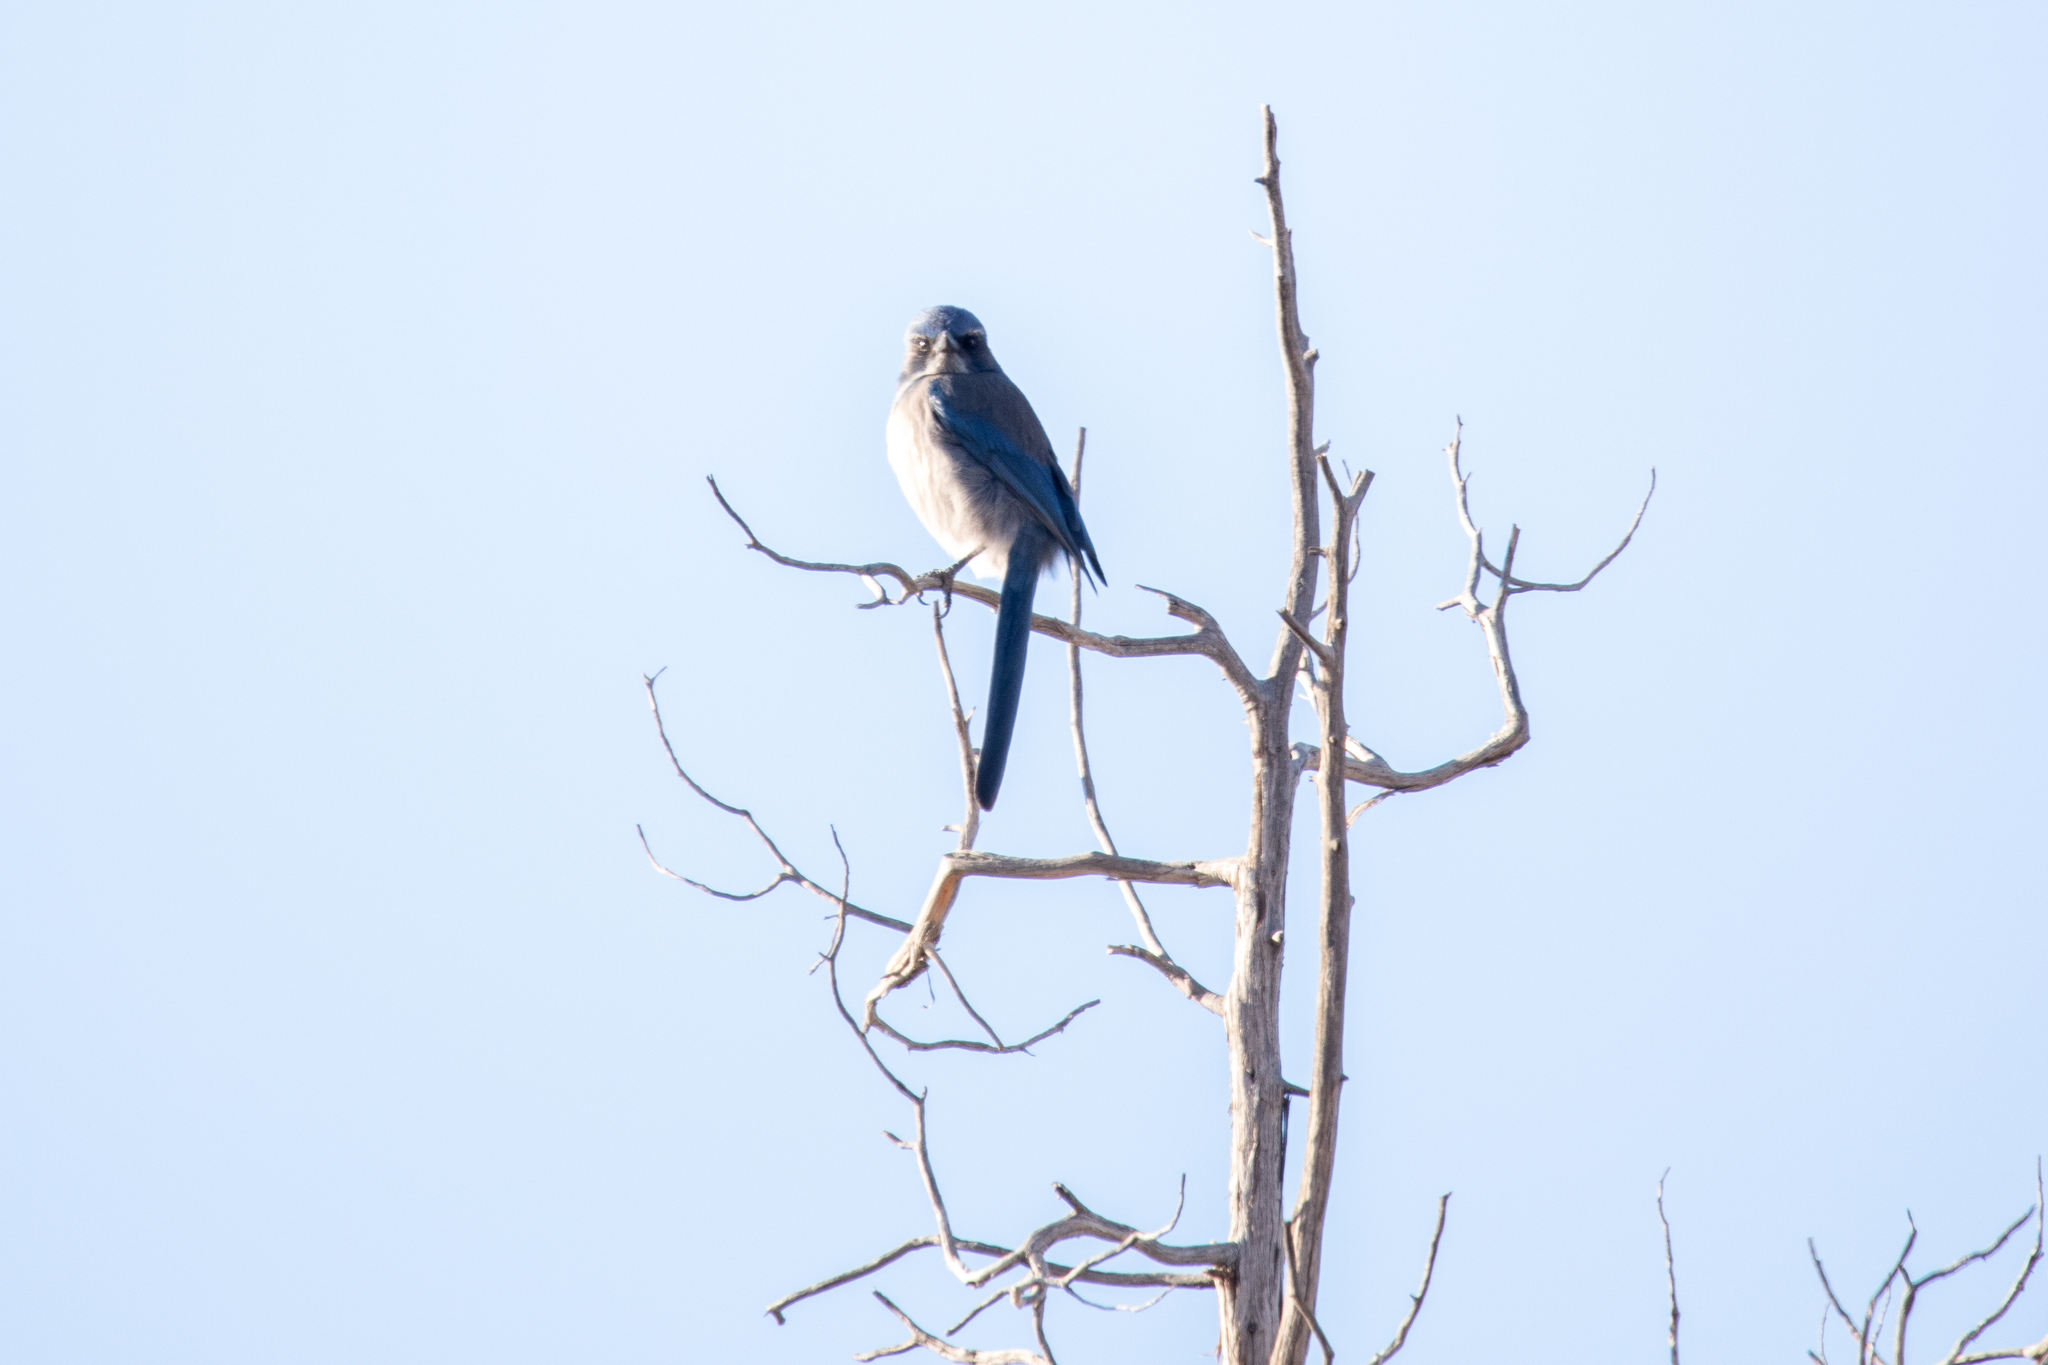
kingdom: Animalia
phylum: Chordata
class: Aves
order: Passeriformes
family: Corvidae
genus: Aphelocoma
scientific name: Aphelocoma woodhouseii
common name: Woodhouse's scrub-jay
